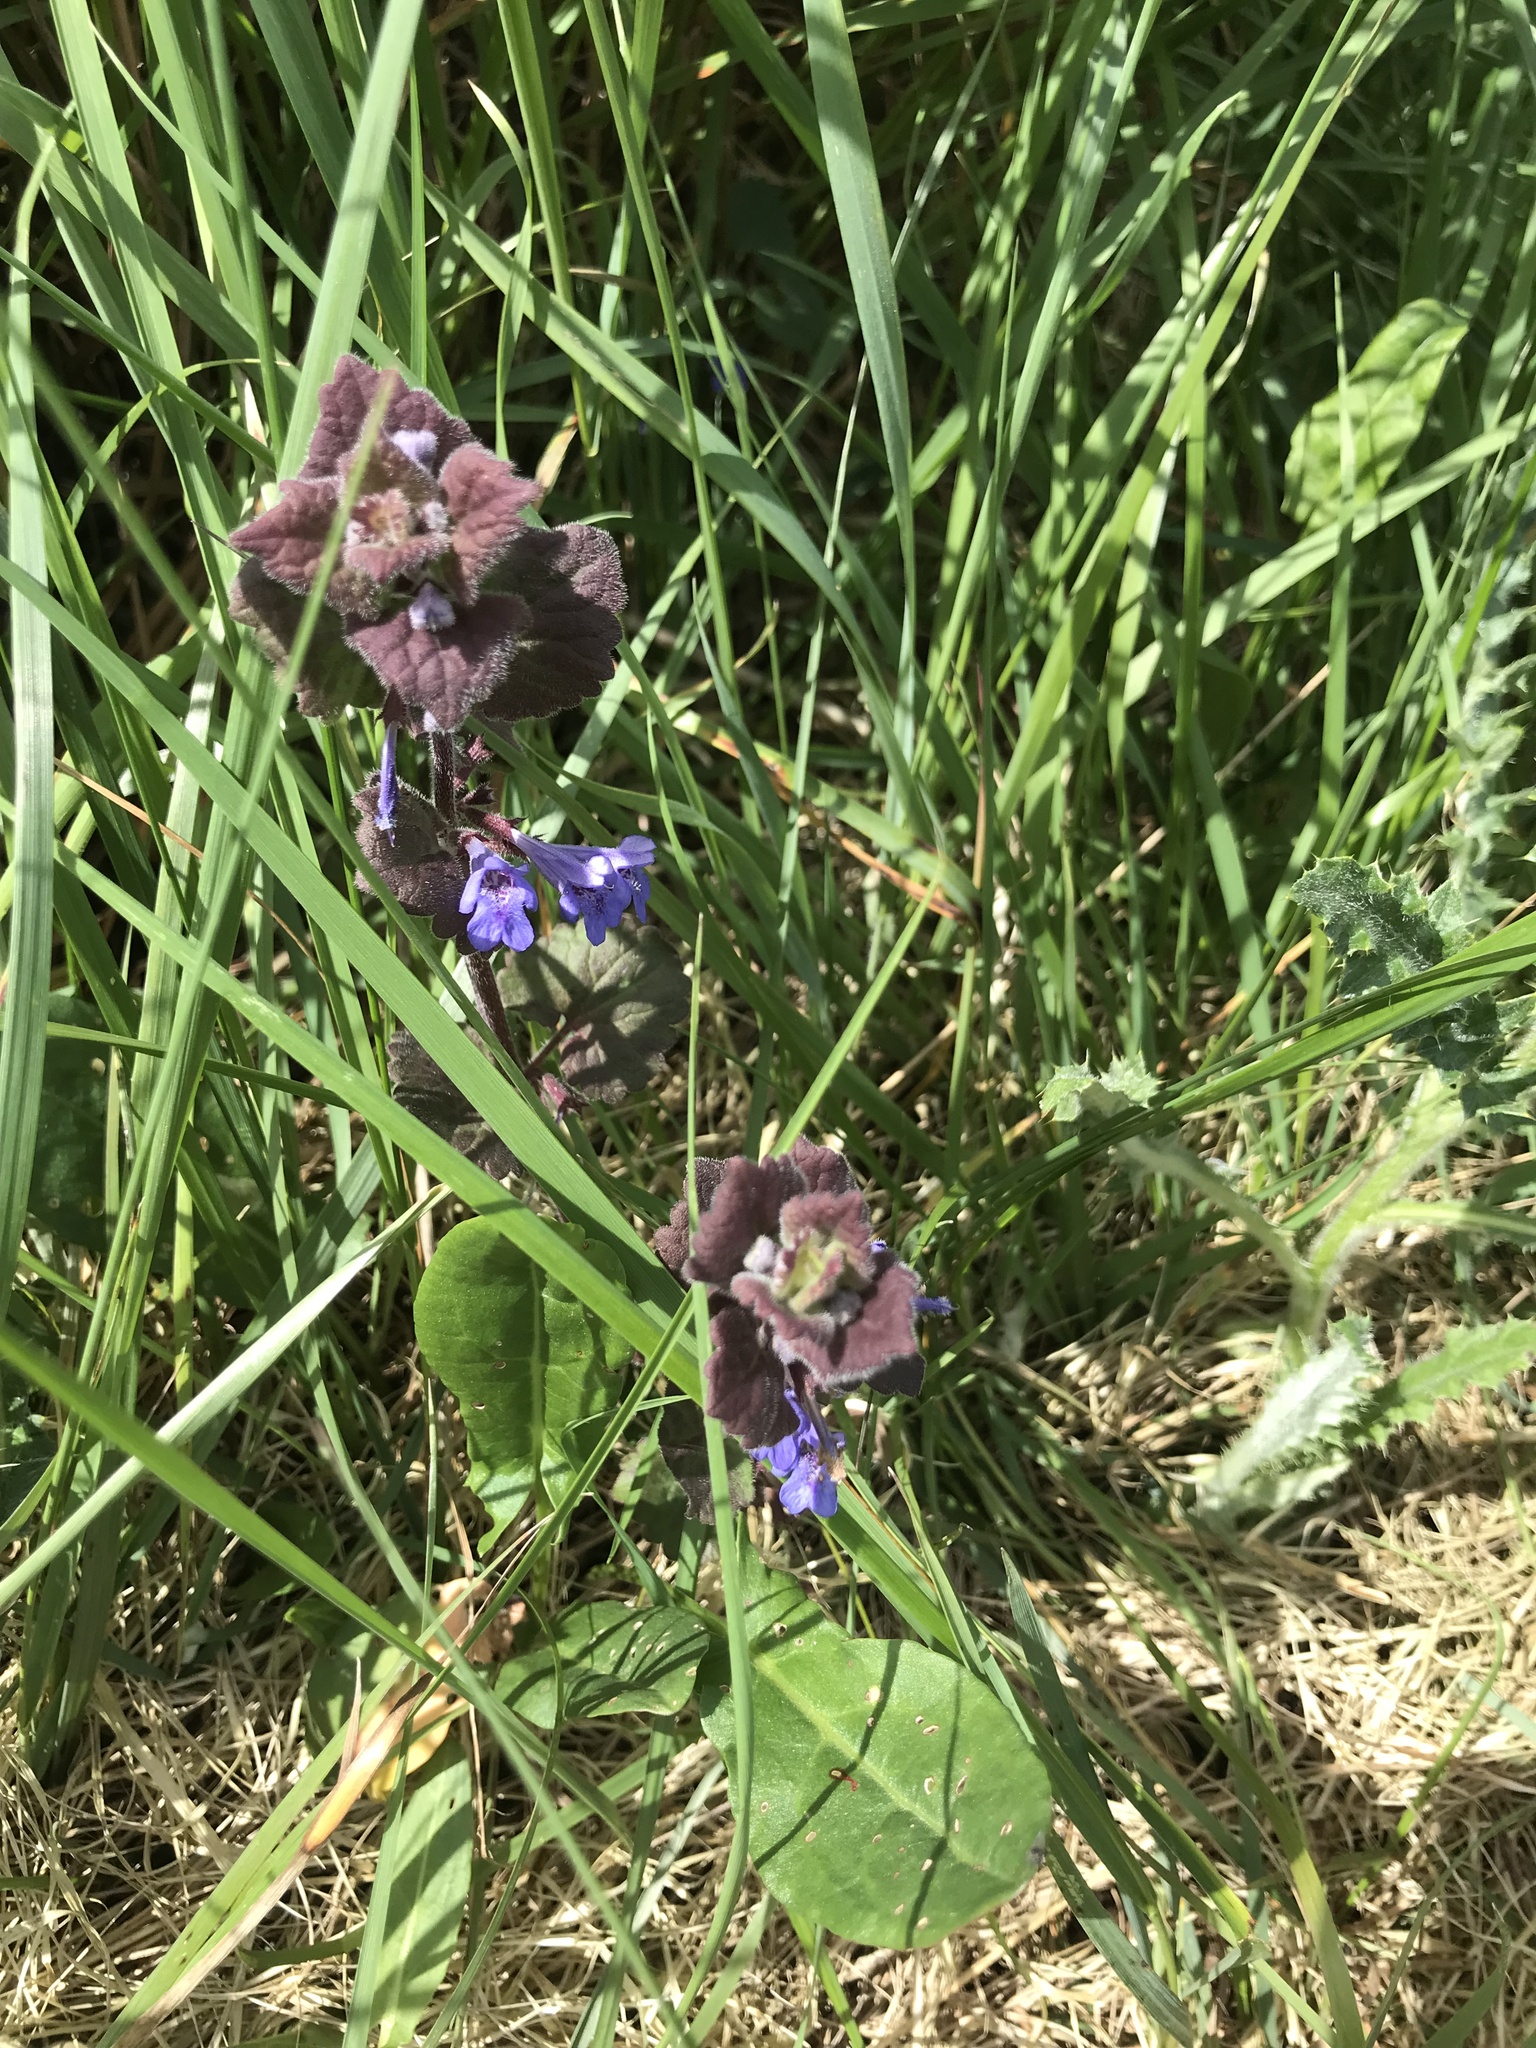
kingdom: Plantae
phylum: Tracheophyta
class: Magnoliopsida
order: Lamiales
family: Lamiaceae
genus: Glechoma
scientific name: Glechoma hederacea
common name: Ground ivy
